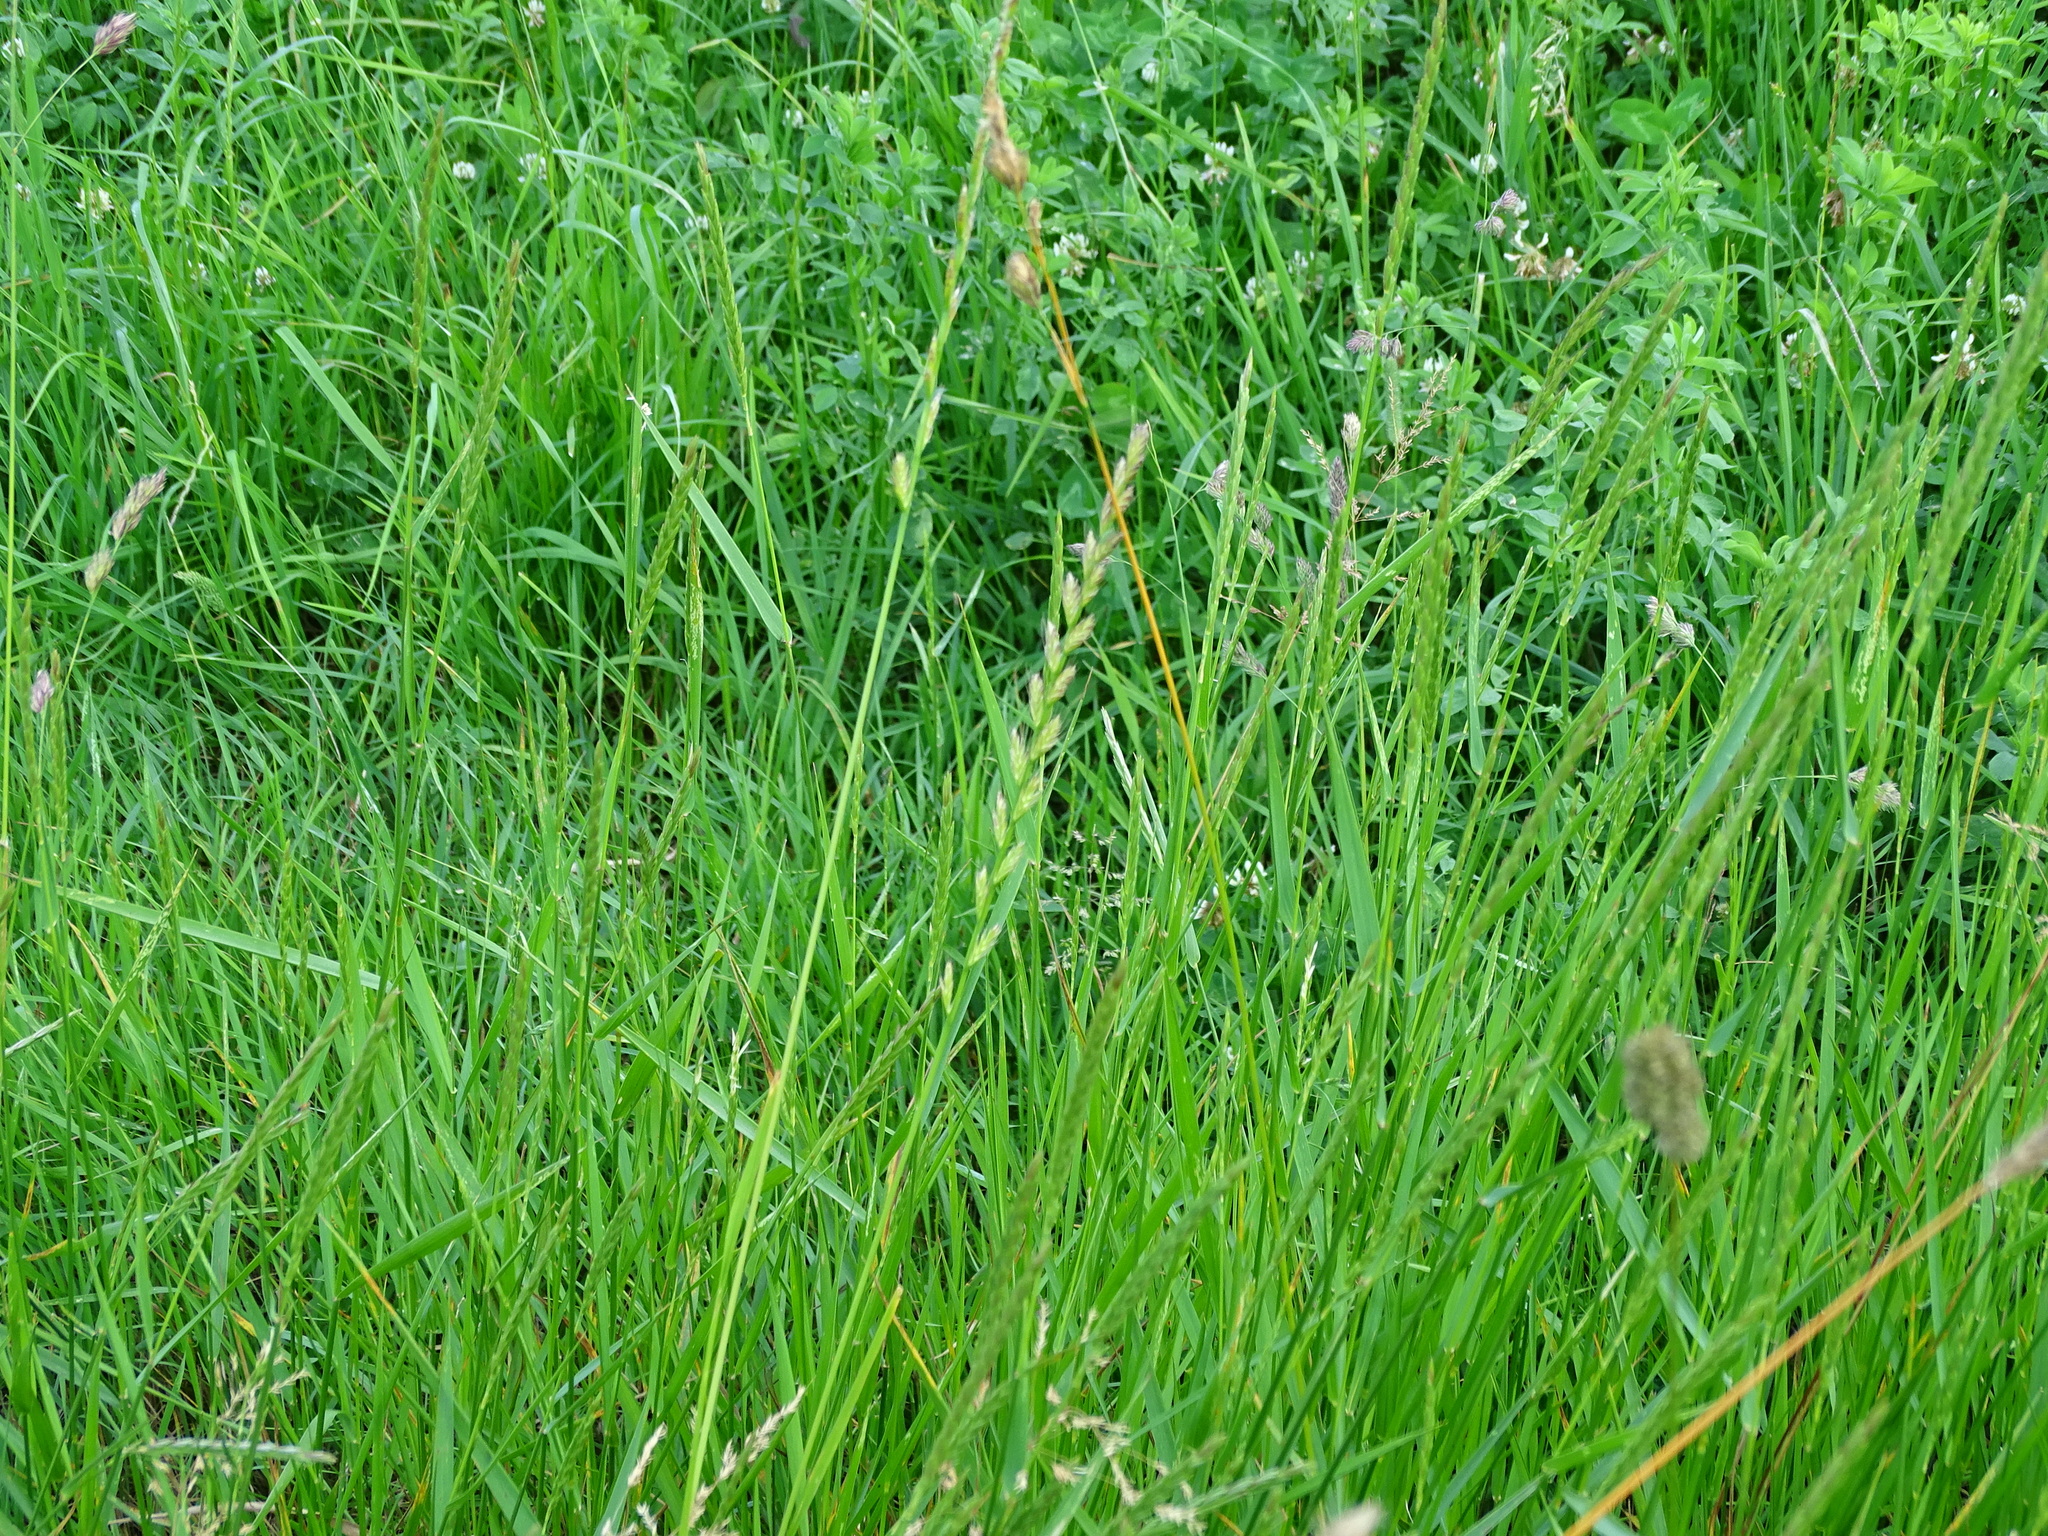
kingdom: Plantae
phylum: Tracheophyta
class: Liliopsida
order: Poales
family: Poaceae
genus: Lolium
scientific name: Lolium multiflorum
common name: Annual ryegrass
